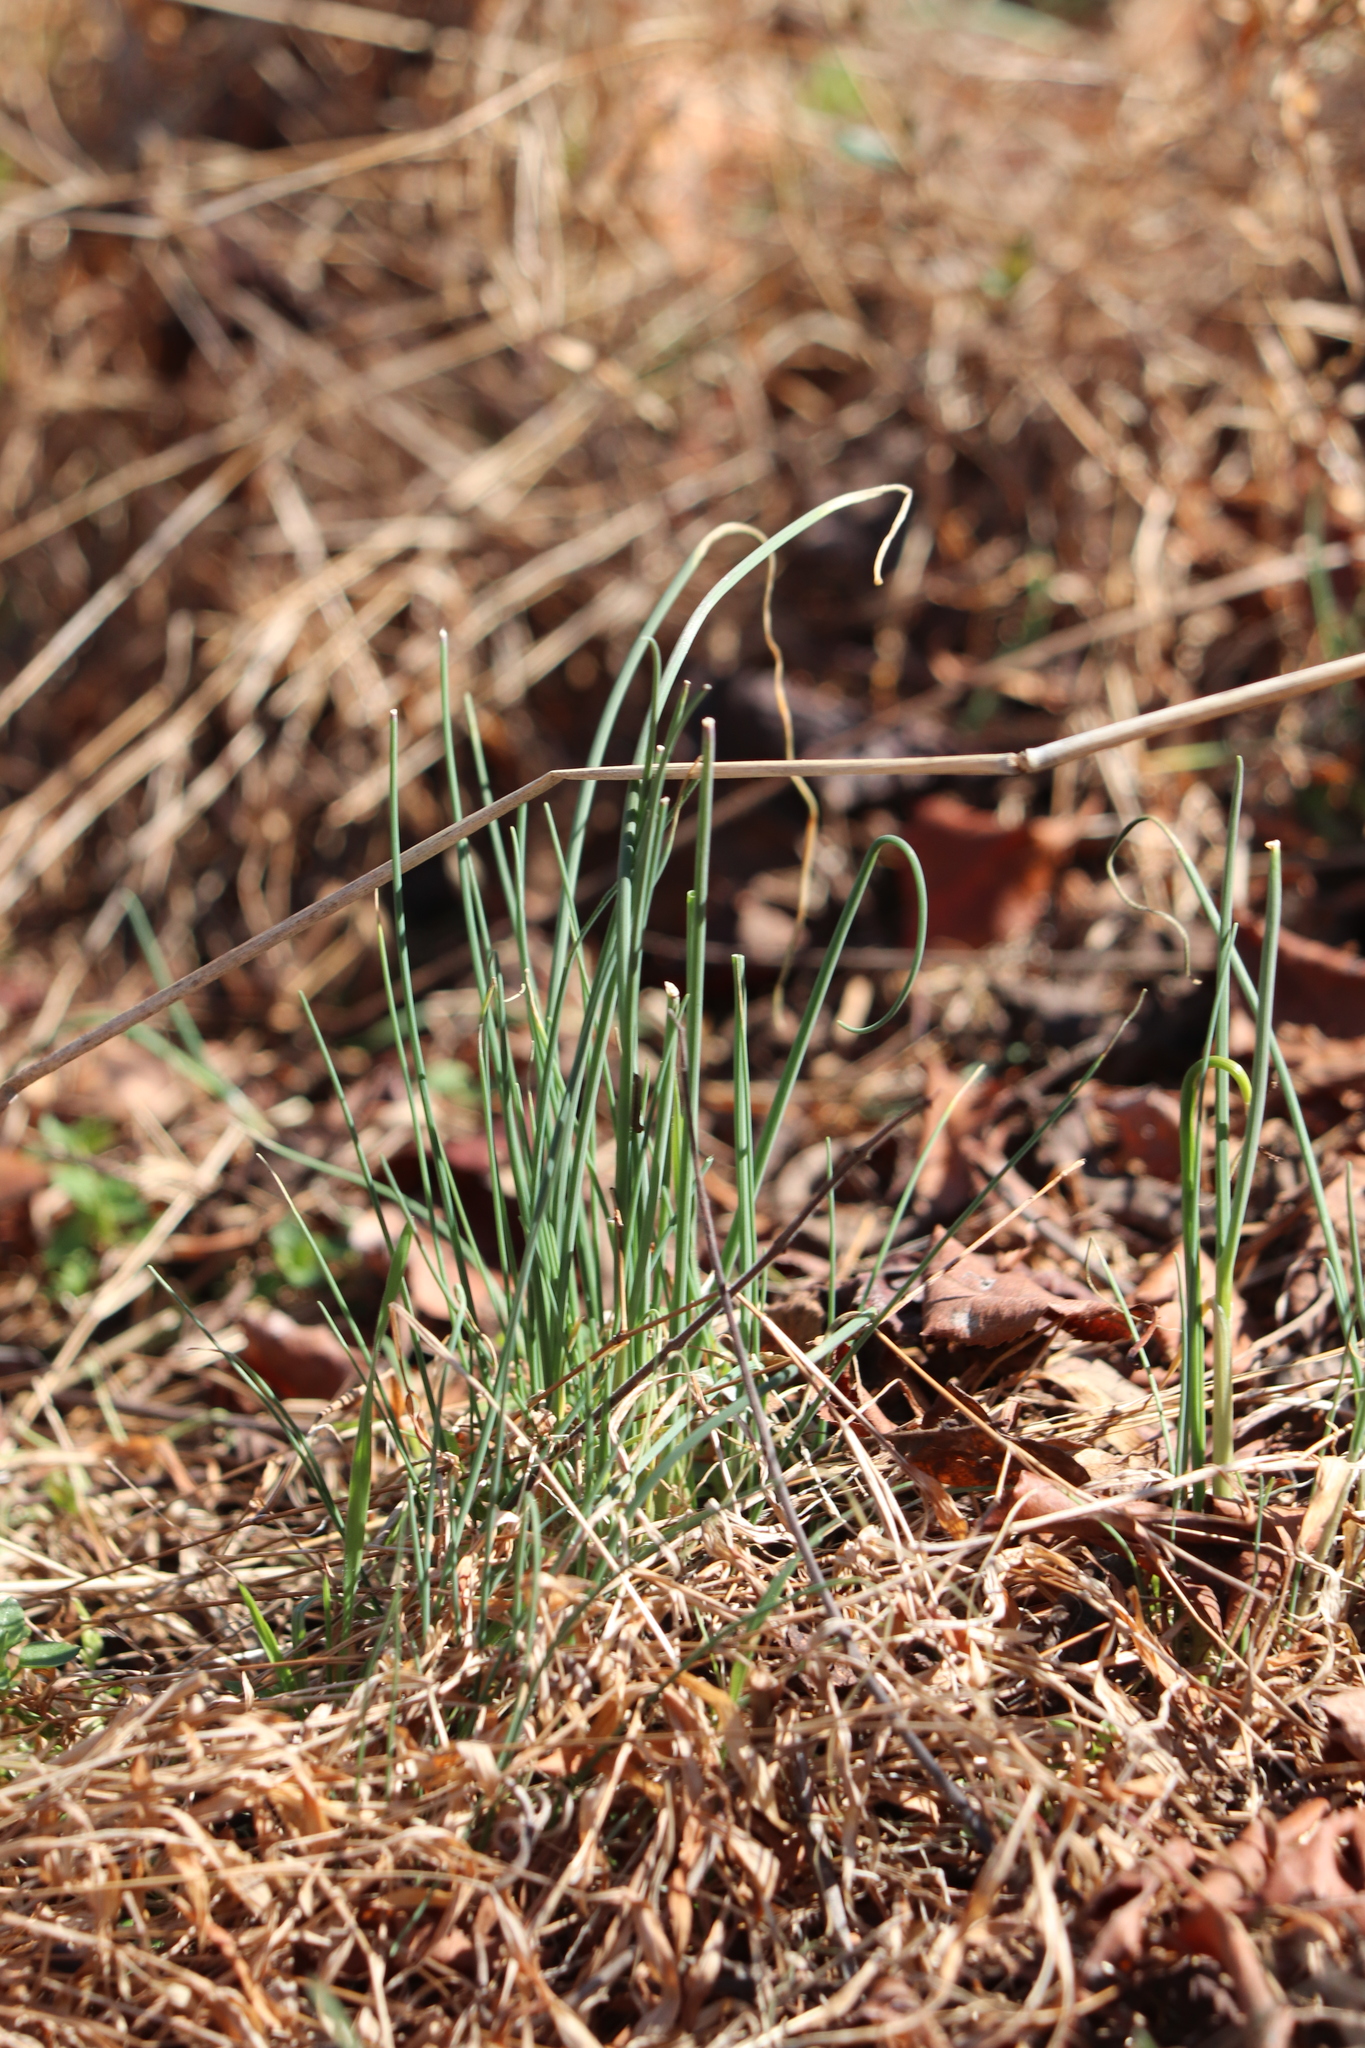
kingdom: Plantae
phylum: Tracheophyta
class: Liliopsida
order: Asparagales
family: Amaryllidaceae
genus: Allium
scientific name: Allium vineale
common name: Crow garlic
